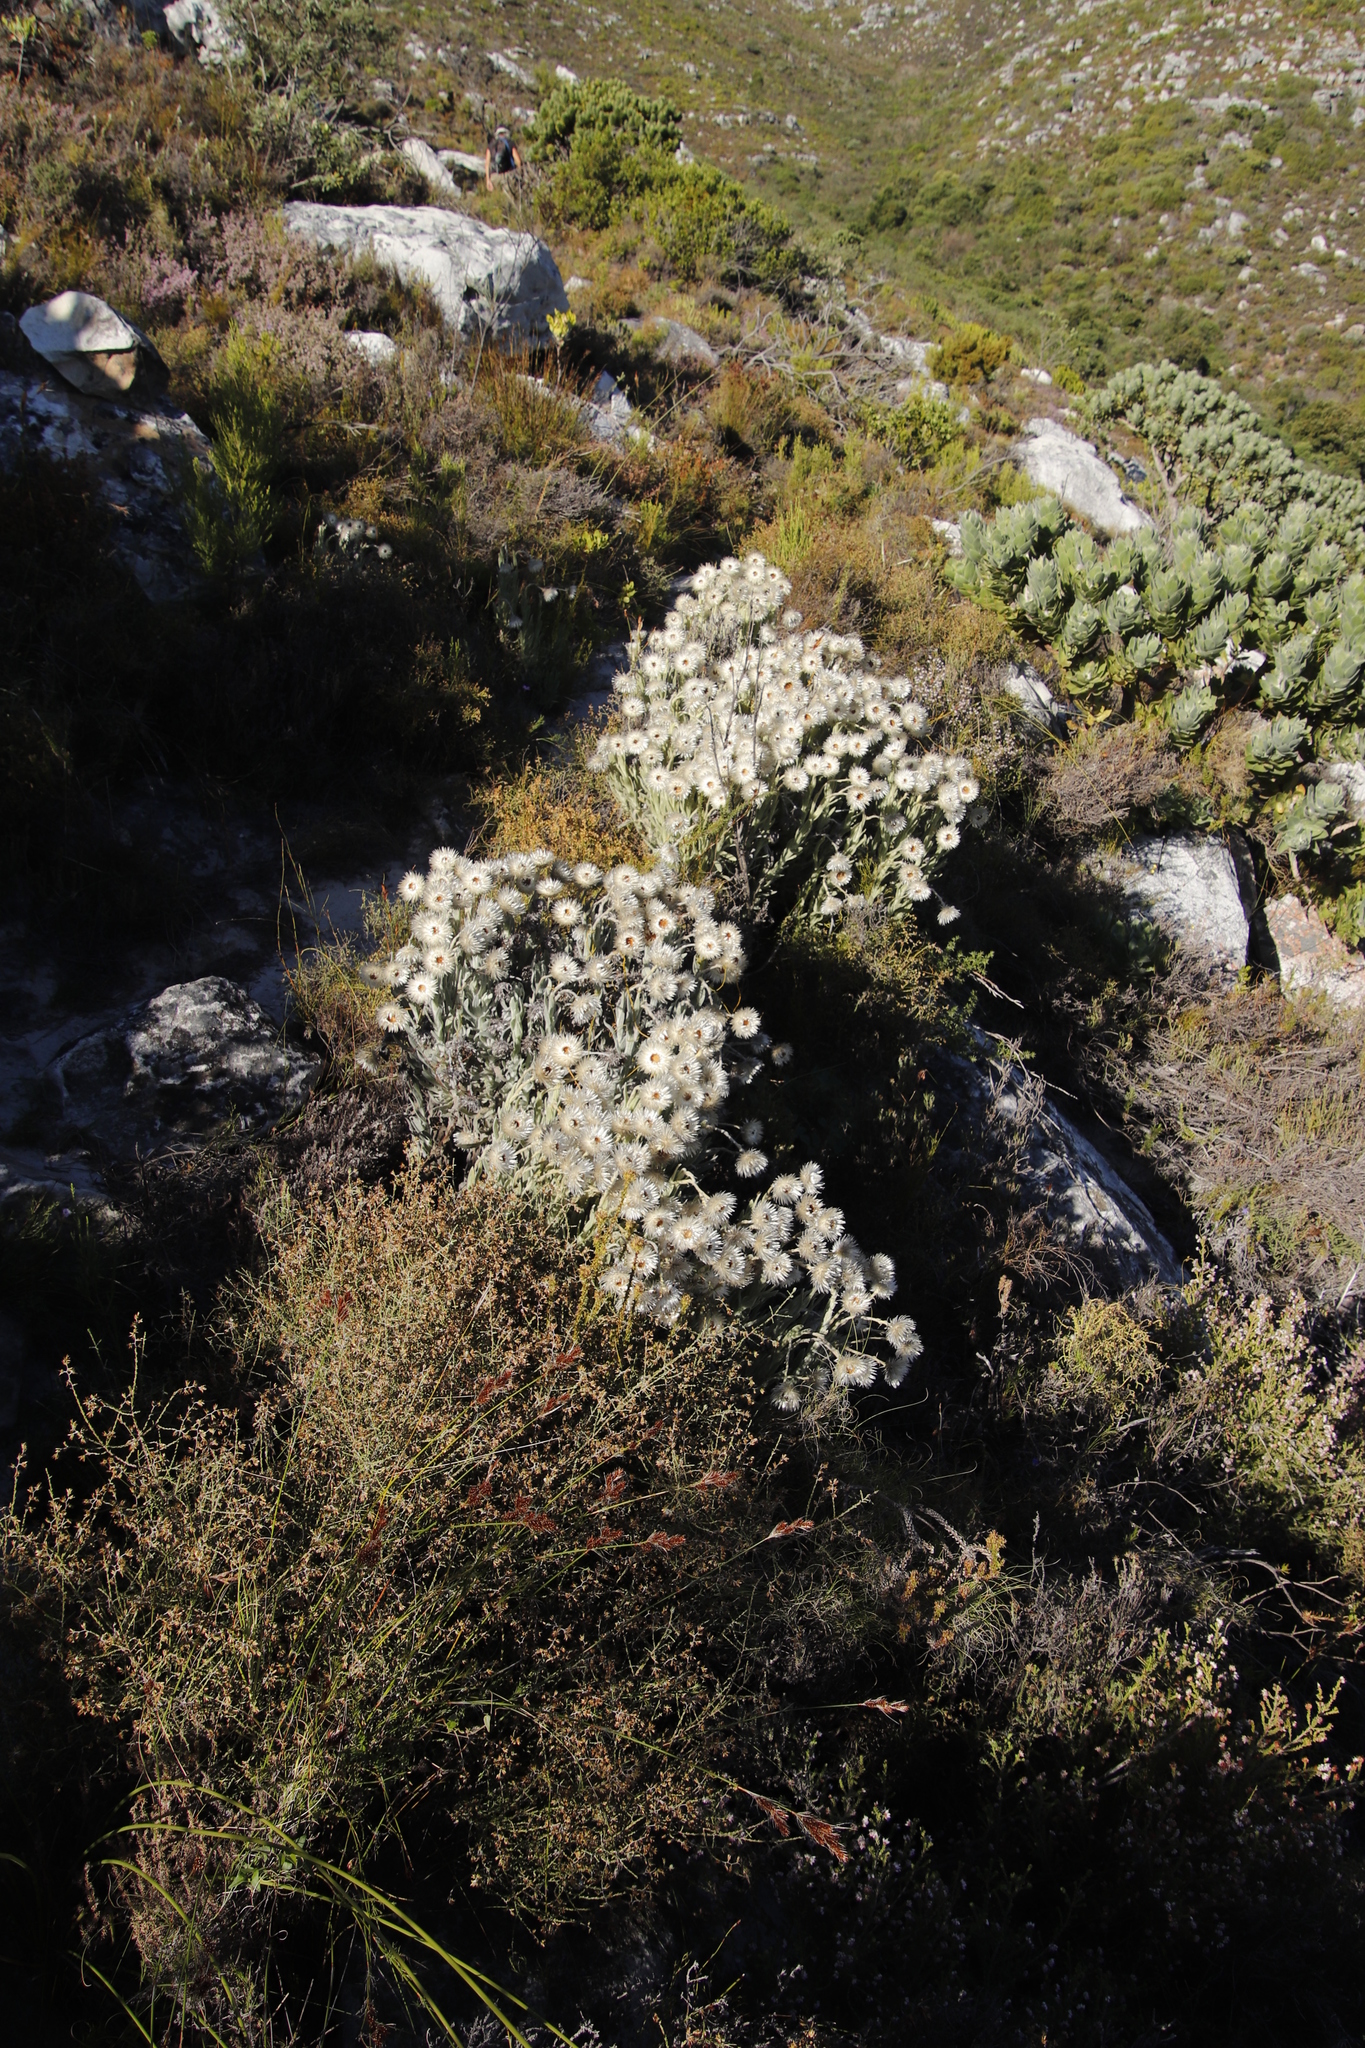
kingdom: Plantae
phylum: Tracheophyta
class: Magnoliopsida
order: Asterales
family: Asteraceae
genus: Syncarpha
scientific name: Syncarpha vestita
